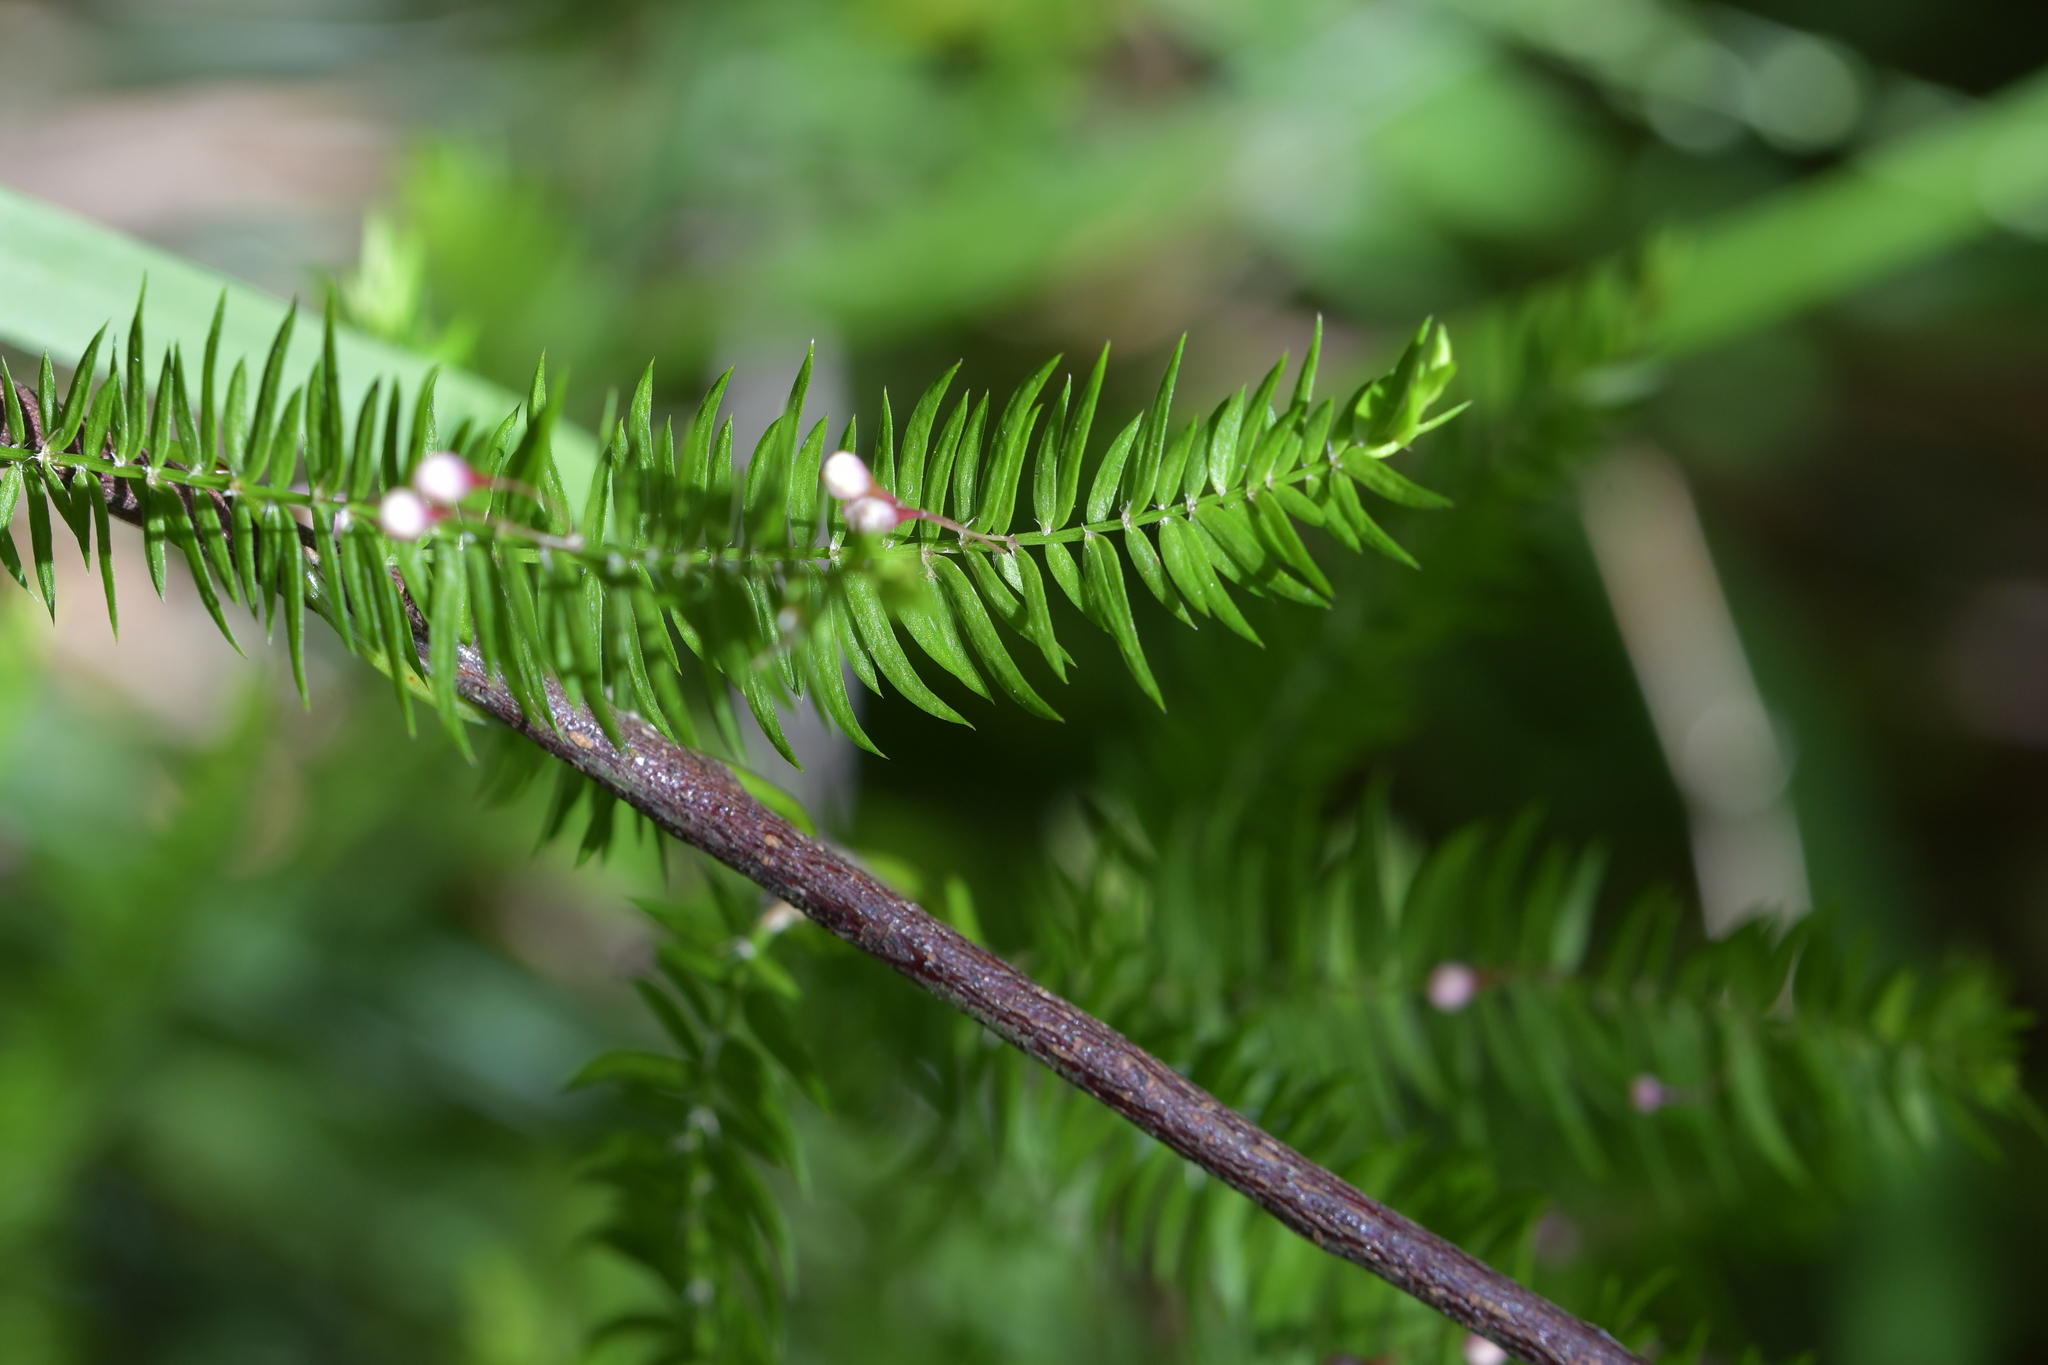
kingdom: Plantae
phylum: Tracheophyta
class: Liliopsida
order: Asparagales
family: Asparagaceae
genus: Asparagus
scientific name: Asparagus scandens
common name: Asparagus-fern
